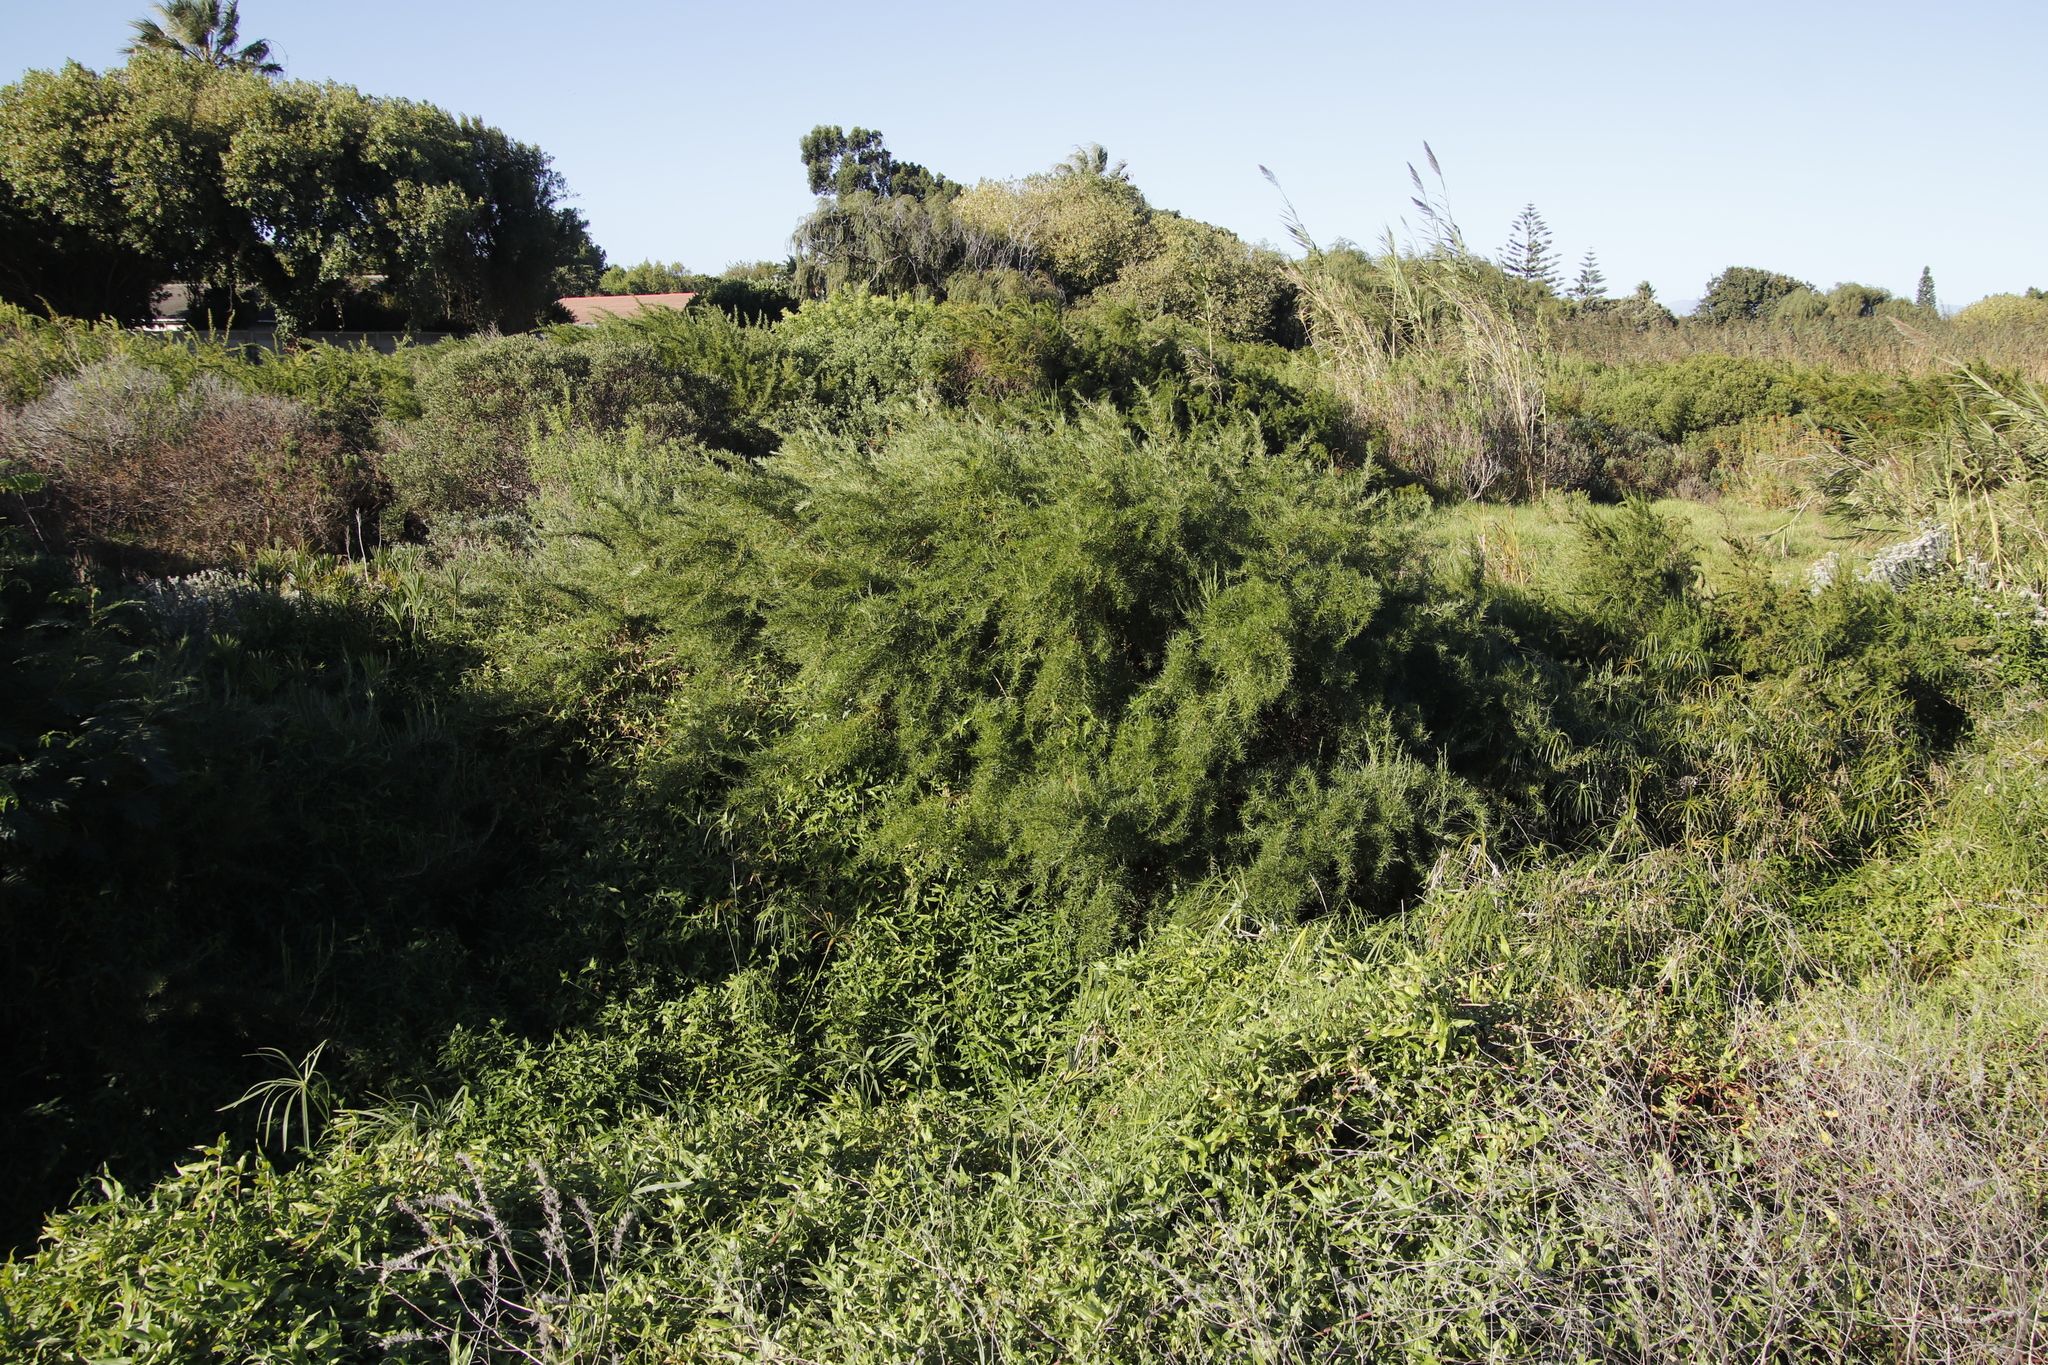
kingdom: Plantae
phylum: Tracheophyta
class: Magnoliopsida
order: Rosales
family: Rosaceae
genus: Cliffortia
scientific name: Cliffortia longifolia
